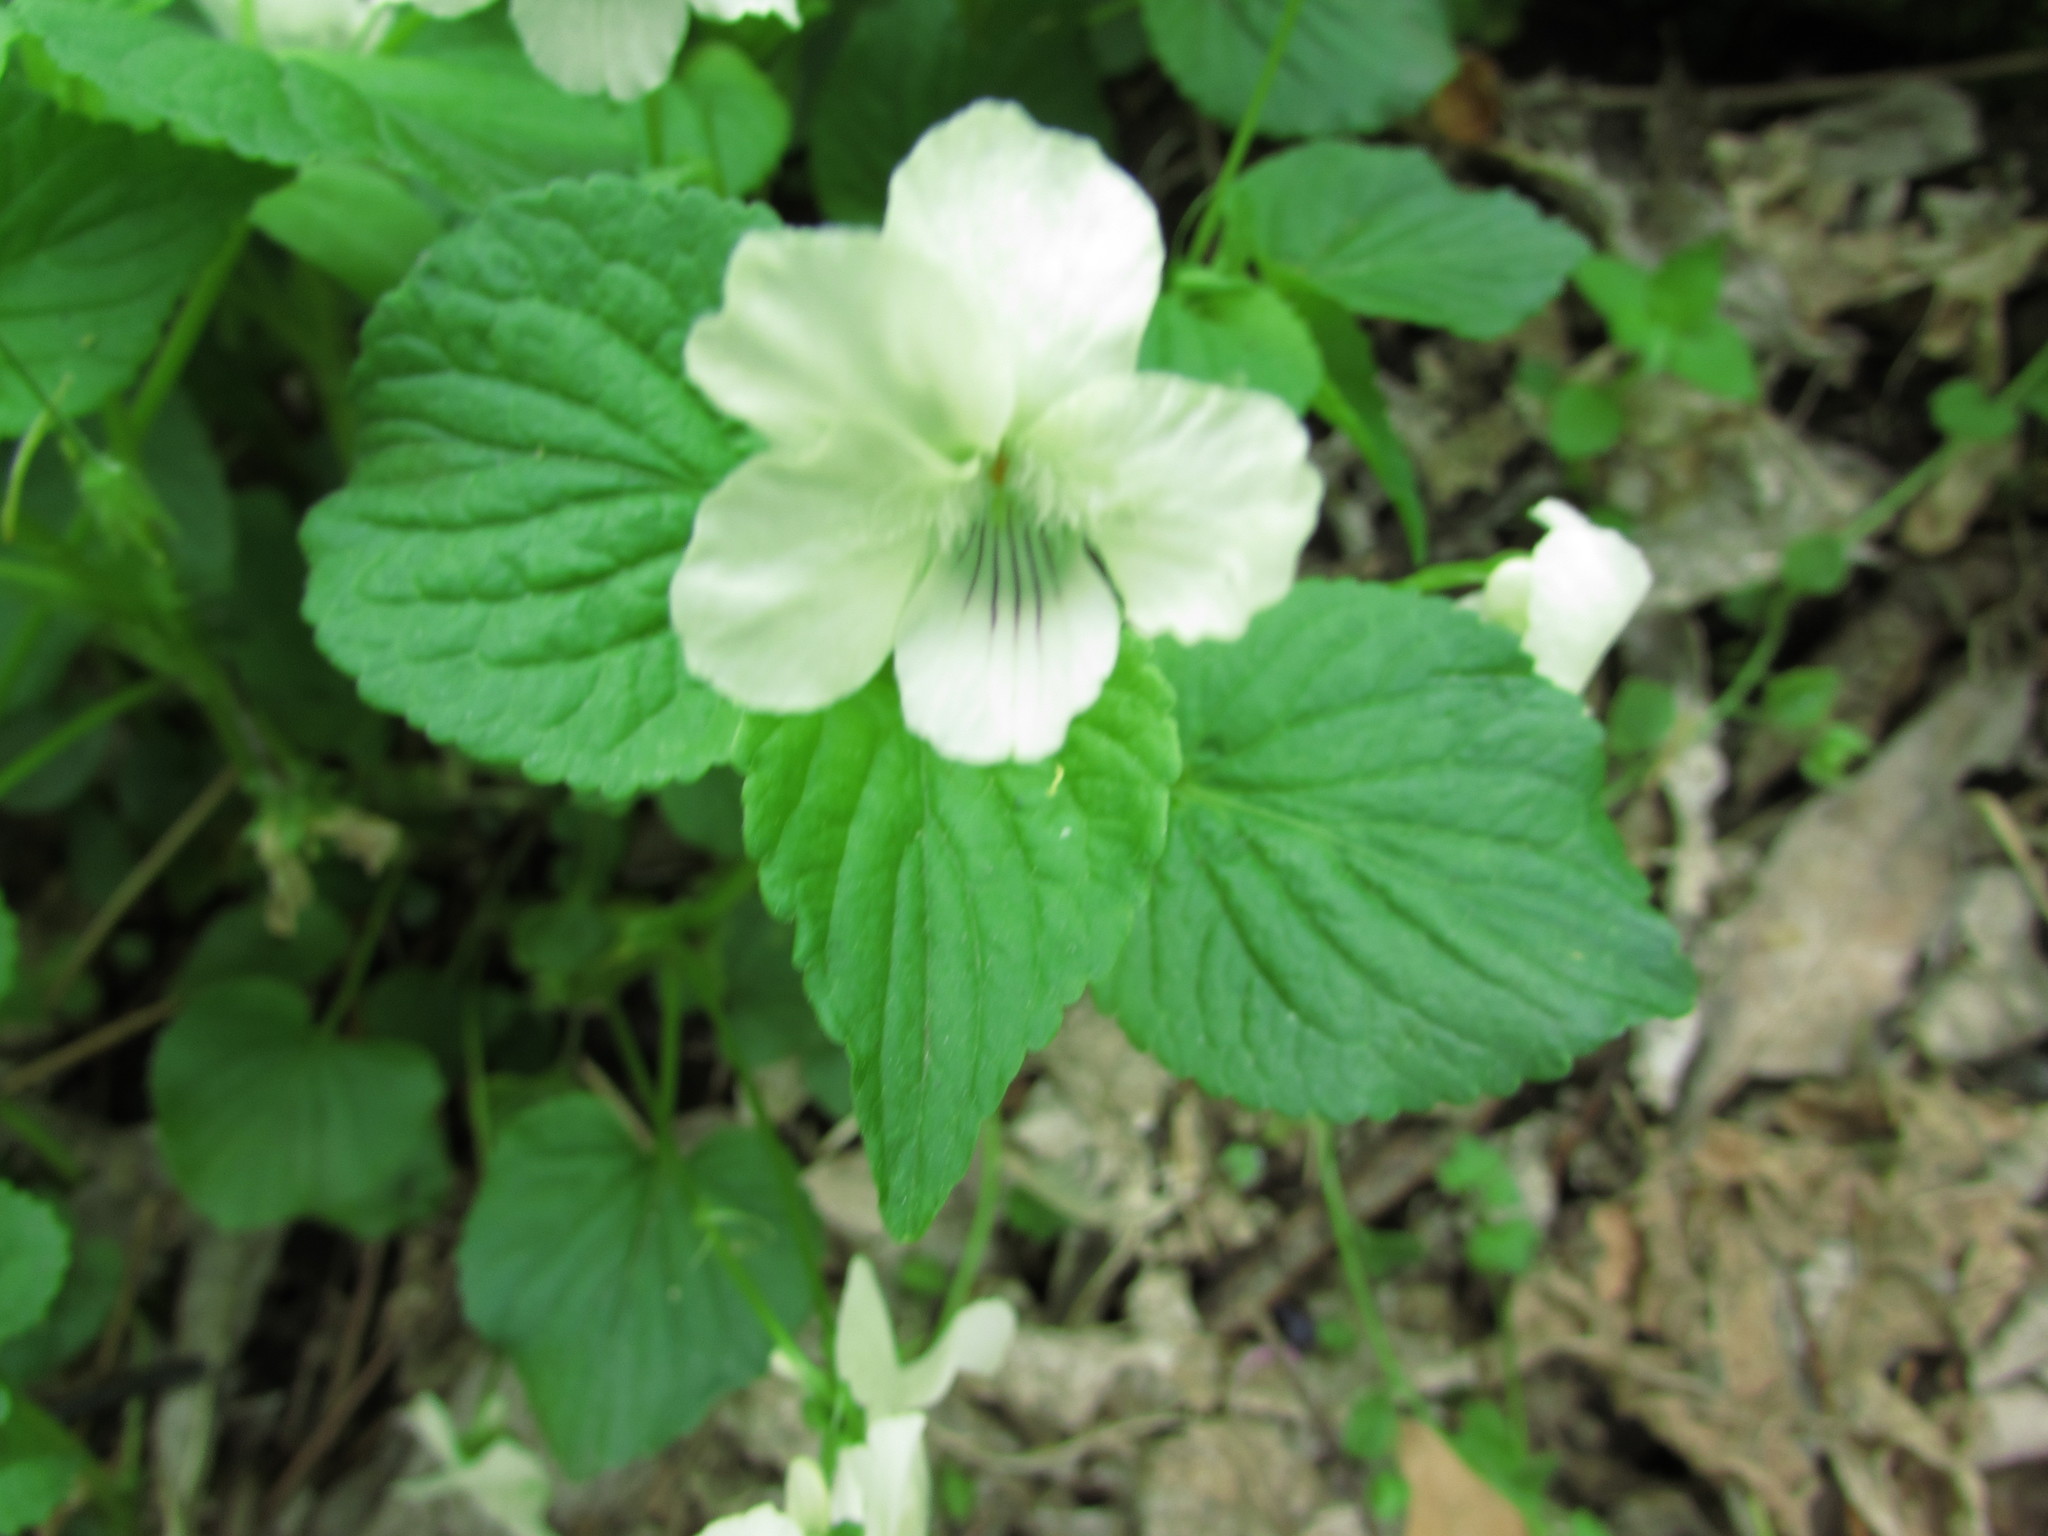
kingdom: Plantae
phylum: Tracheophyta
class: Magnoliopsida
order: Malpighiales
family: Violaceae
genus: Viola
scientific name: Viola striata
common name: Cream violet
